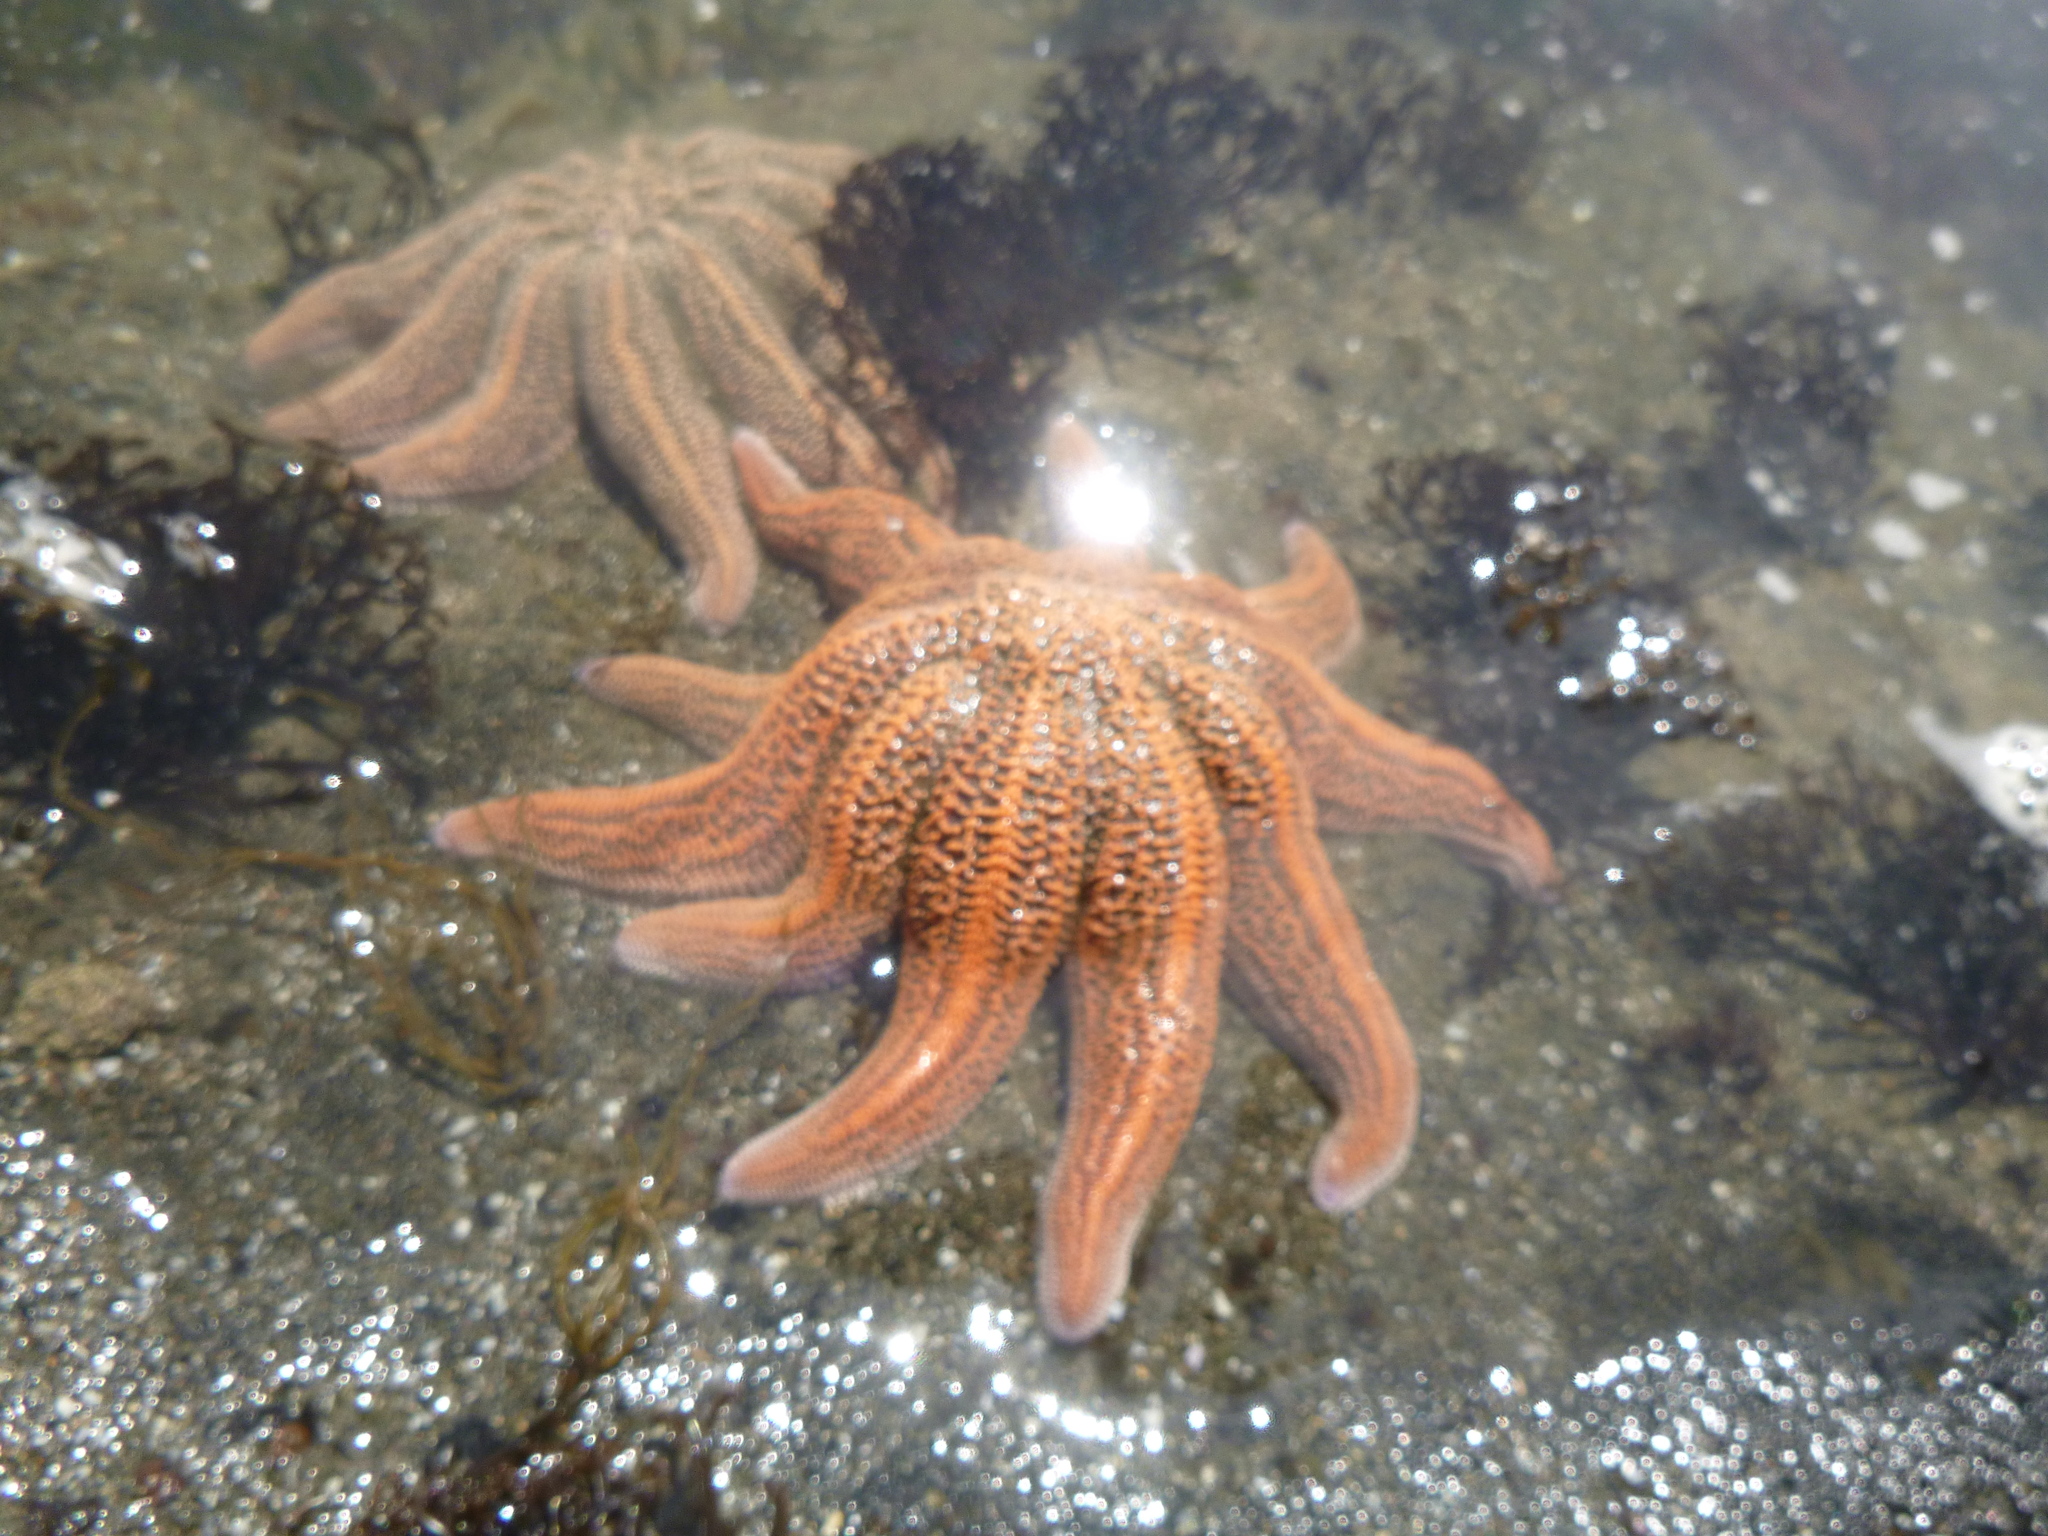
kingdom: Animalia
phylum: Echinodermata
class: Asteroidea
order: Forcipulatida
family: Stichasteridae
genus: Stichaster
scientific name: Stichaster australis
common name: Reef starfish
